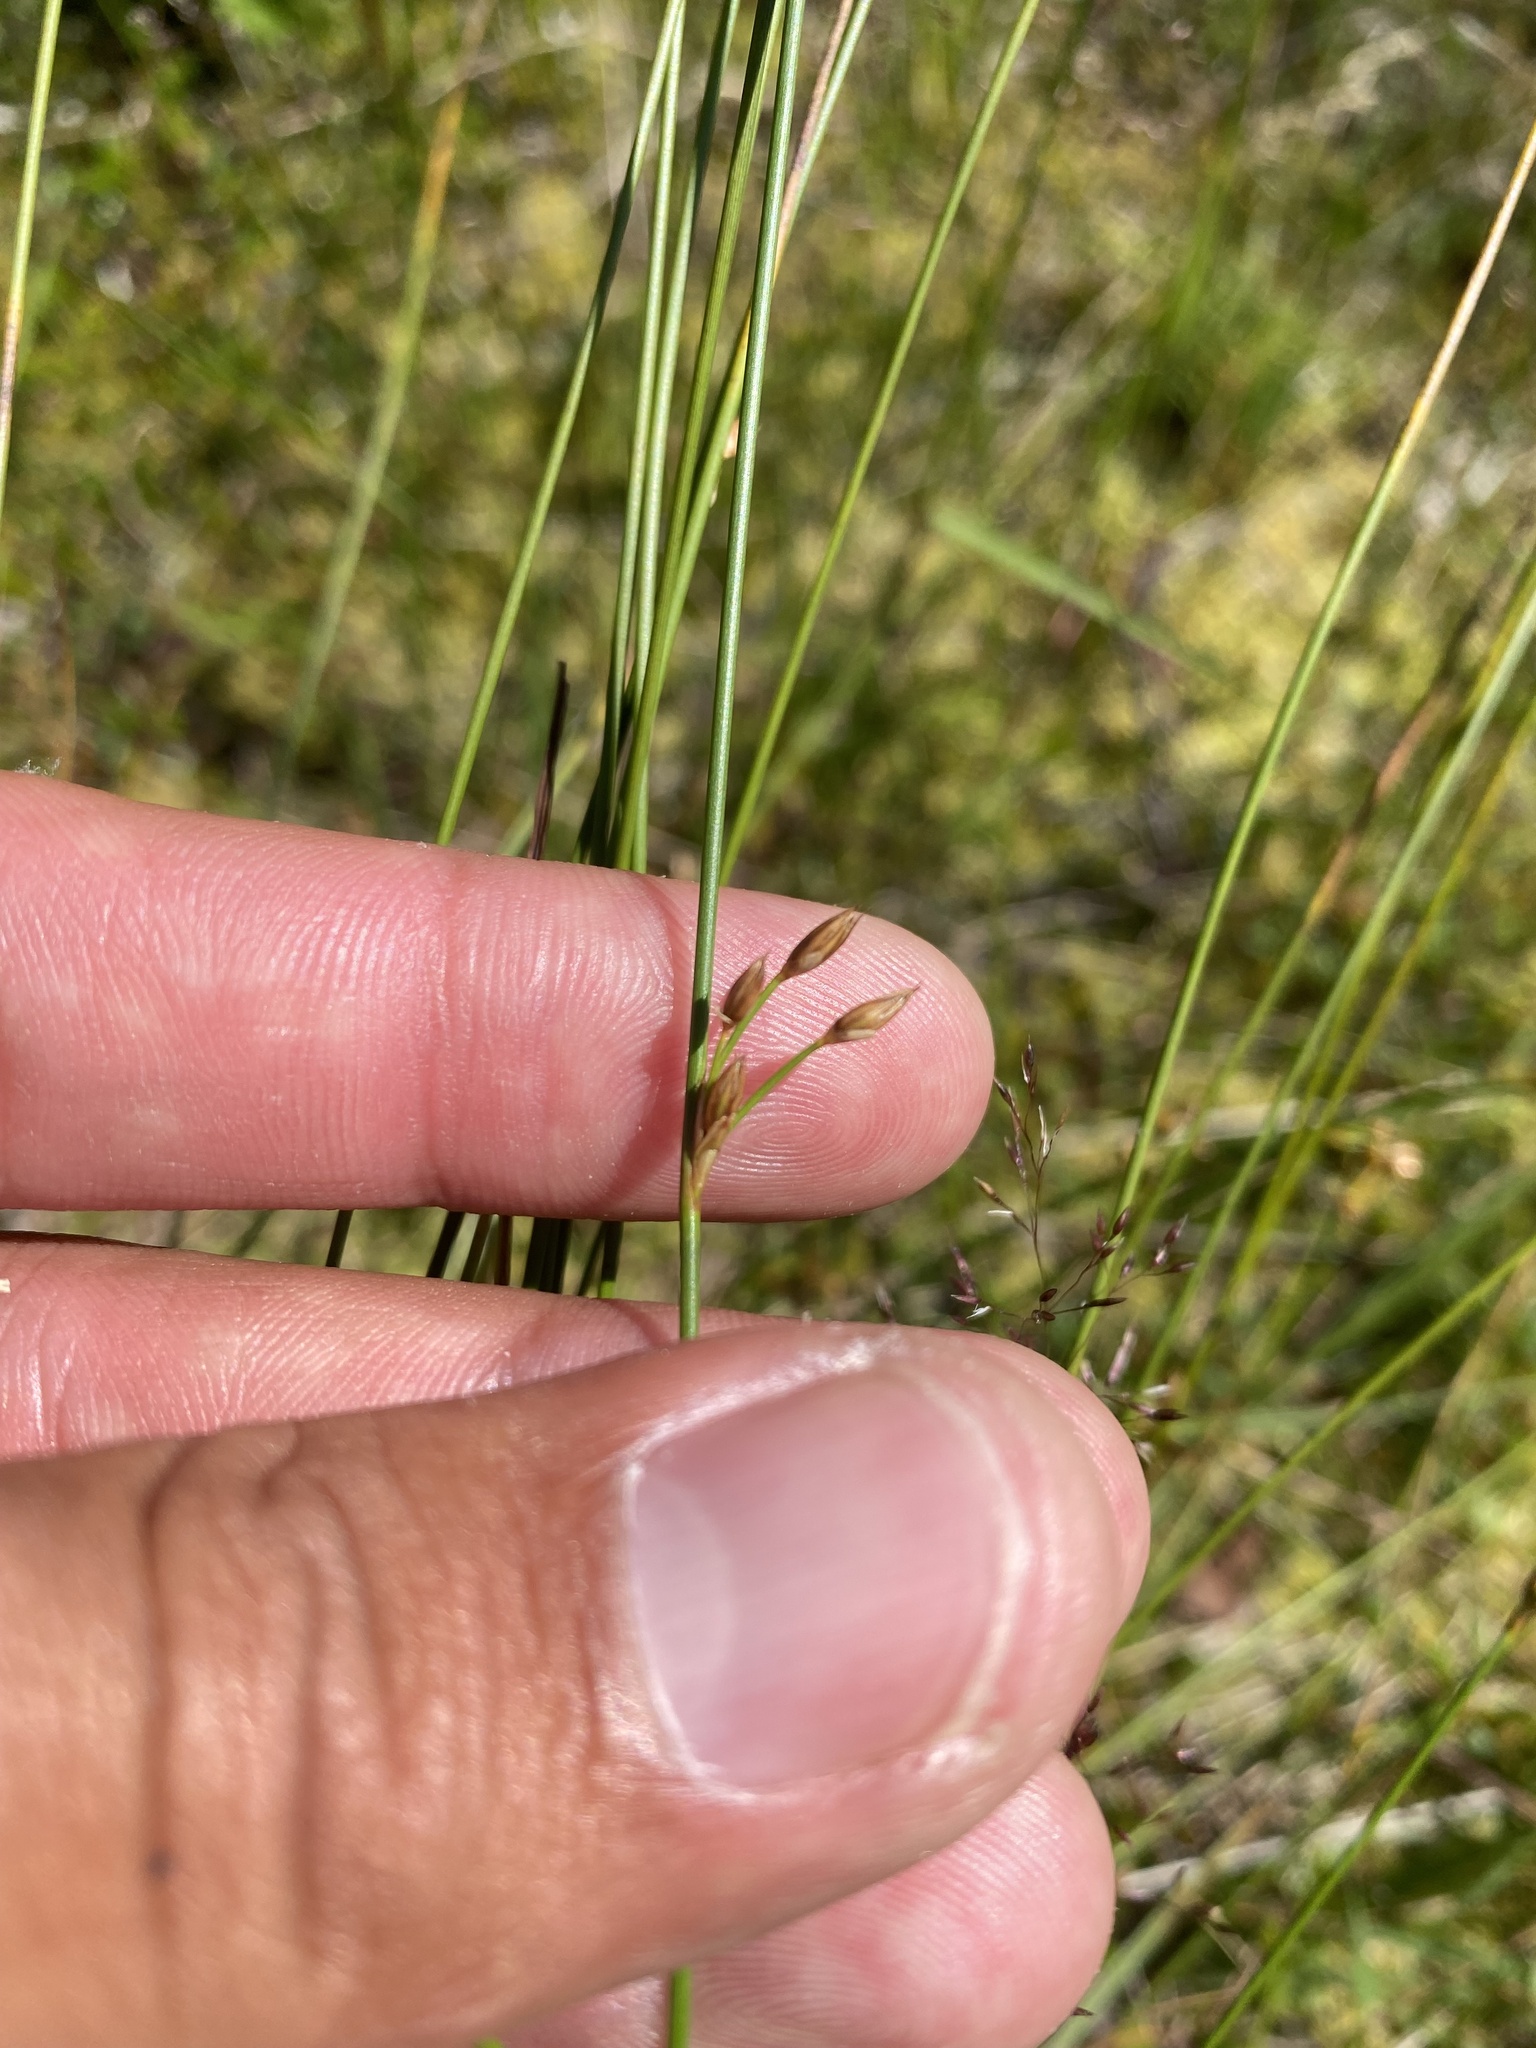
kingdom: Plantae
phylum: Tracheophyta
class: Liliopsida
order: Poales
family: Juncaceae
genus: Juncus
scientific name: Juncus filiformis
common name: Thread rush
